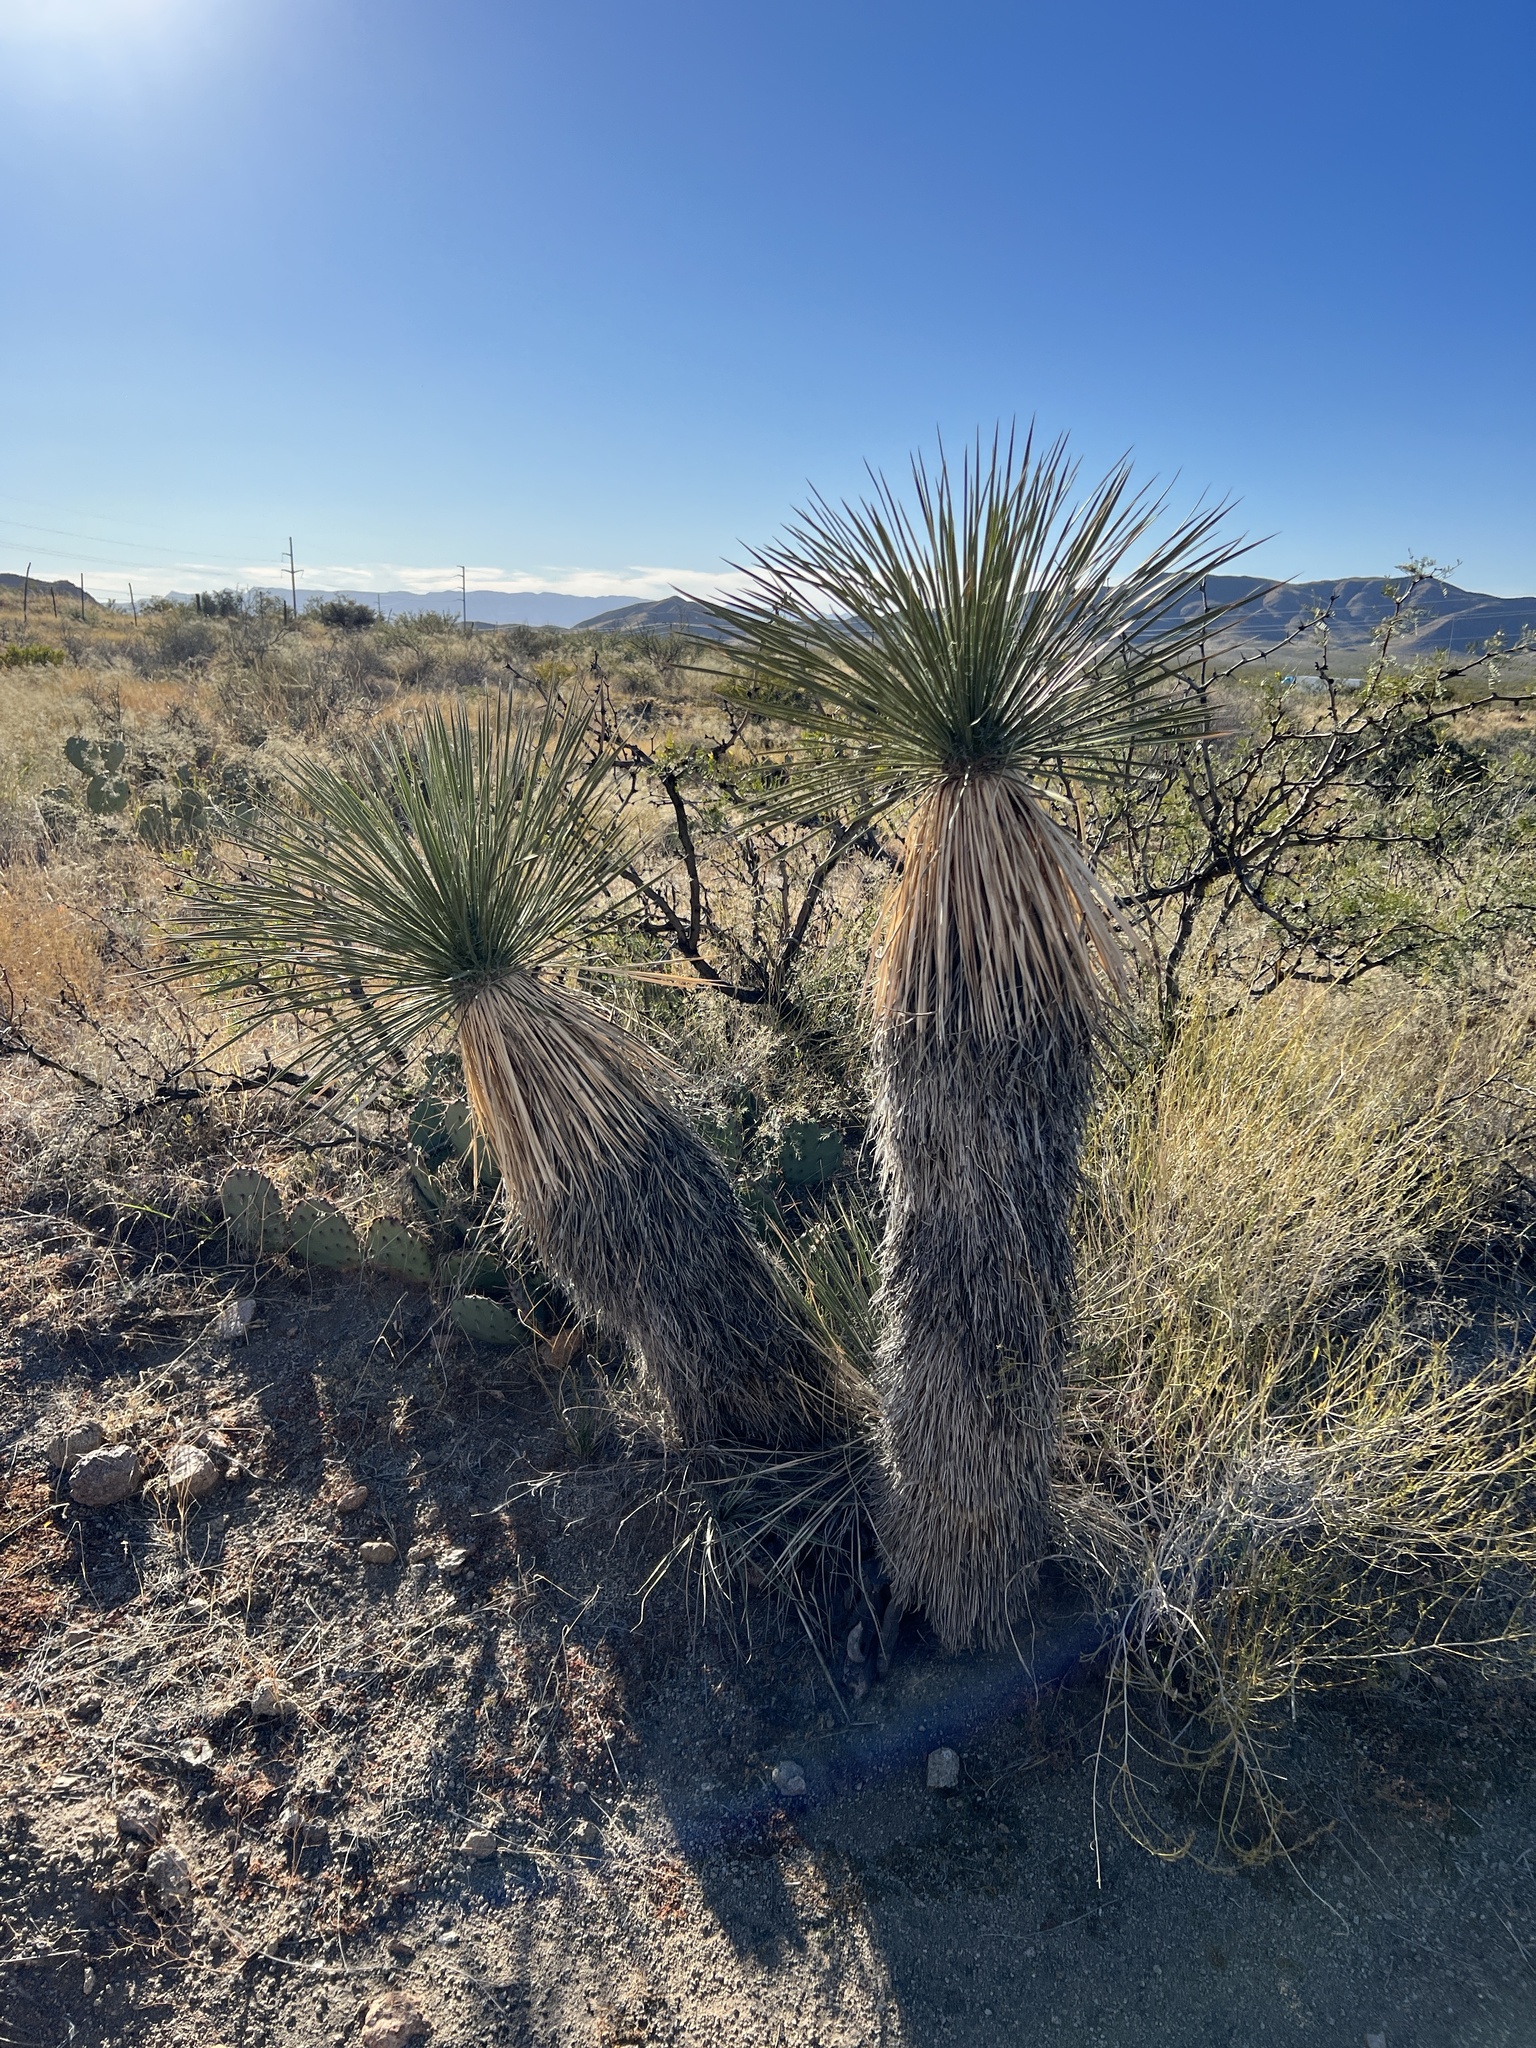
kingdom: Plantae
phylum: Tracheophyta
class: Liliopsida
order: Asparagales
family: Asparagaceae
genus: Yucca
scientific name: Yucca elata
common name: Palmella
